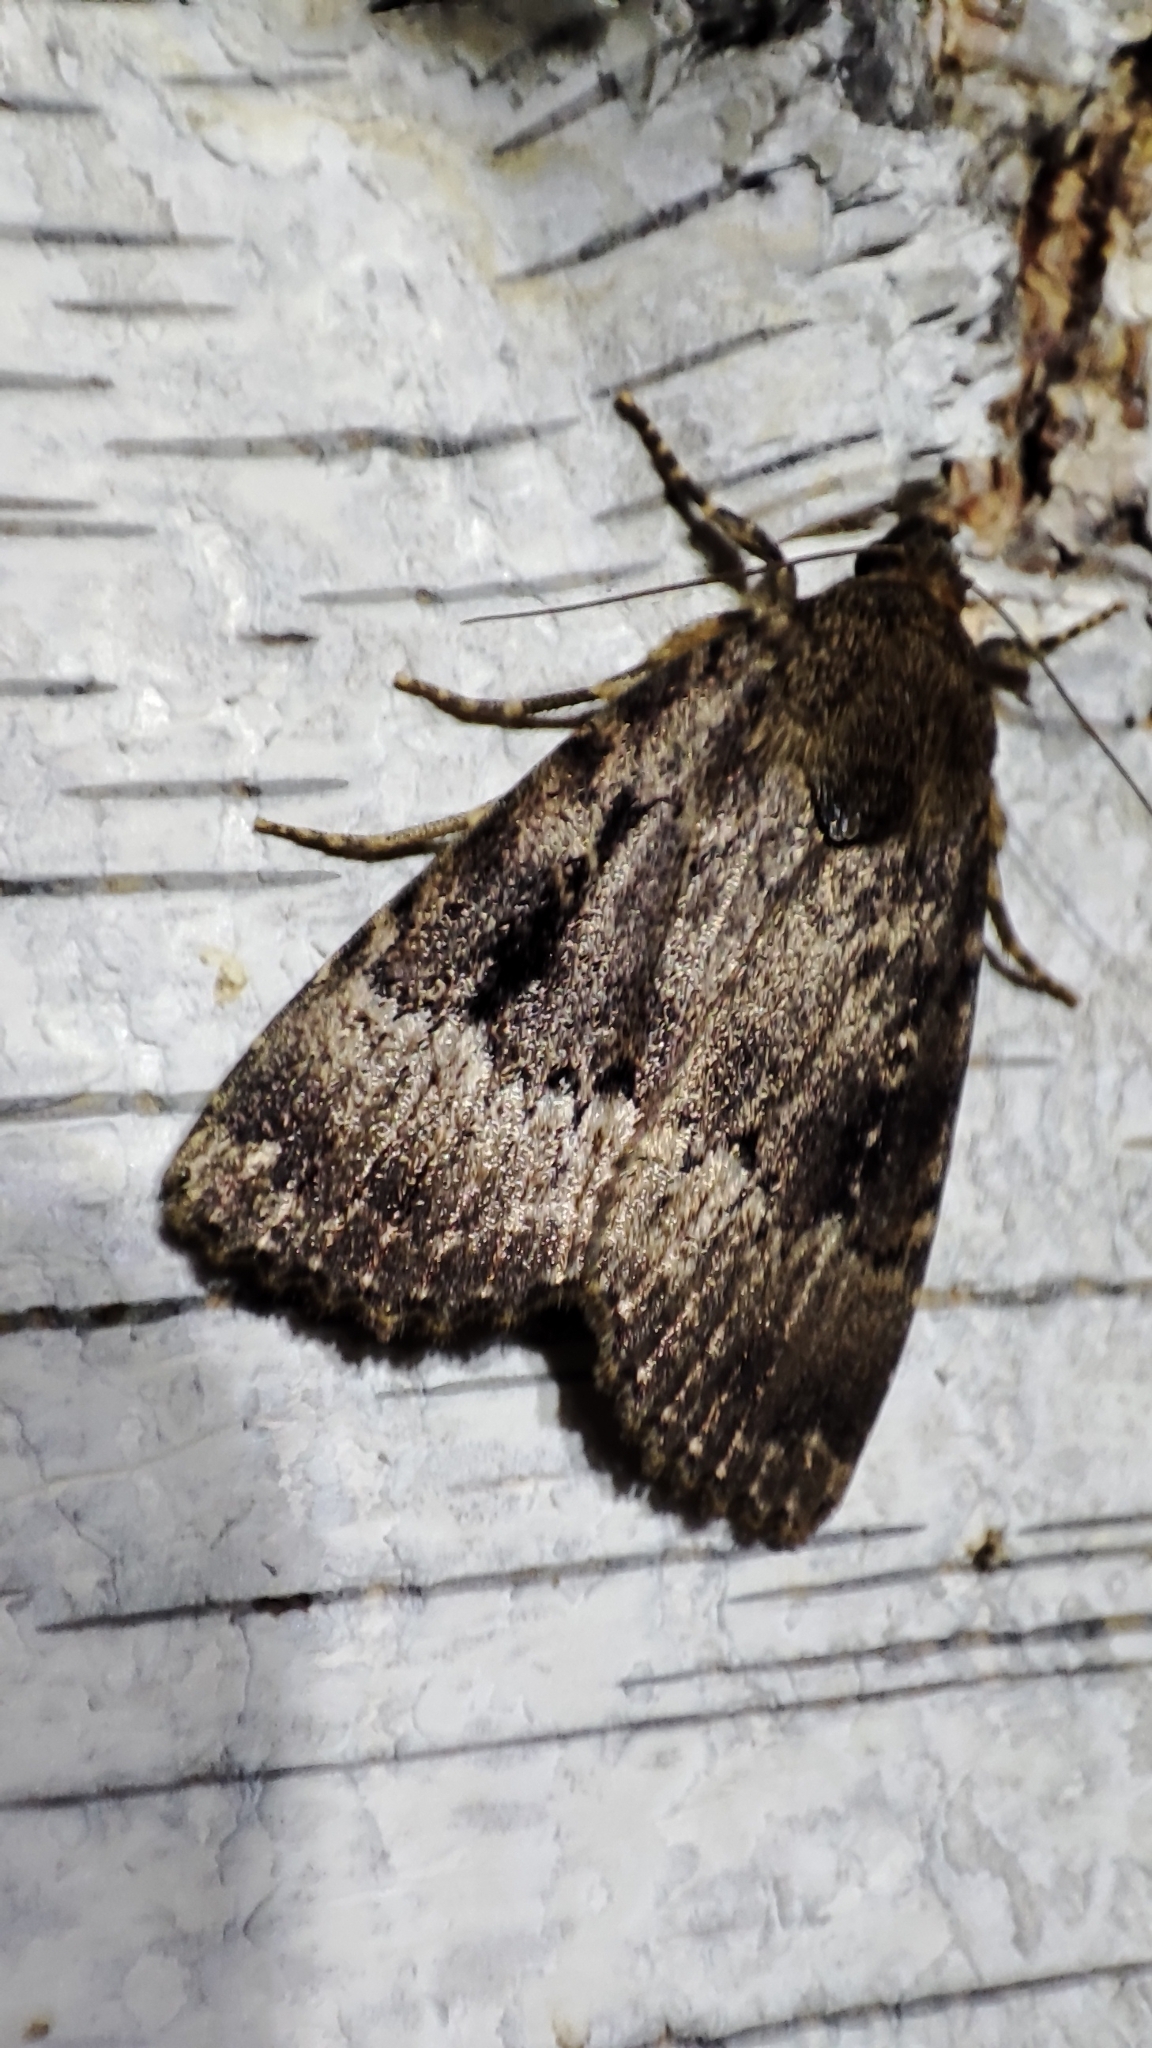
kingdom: Animalia
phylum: Arthropoda
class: Insecta
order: Lepidoptera
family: Noctuidae
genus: Amphipyra
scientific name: Amphipyra pyramidea
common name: Copper underwing
